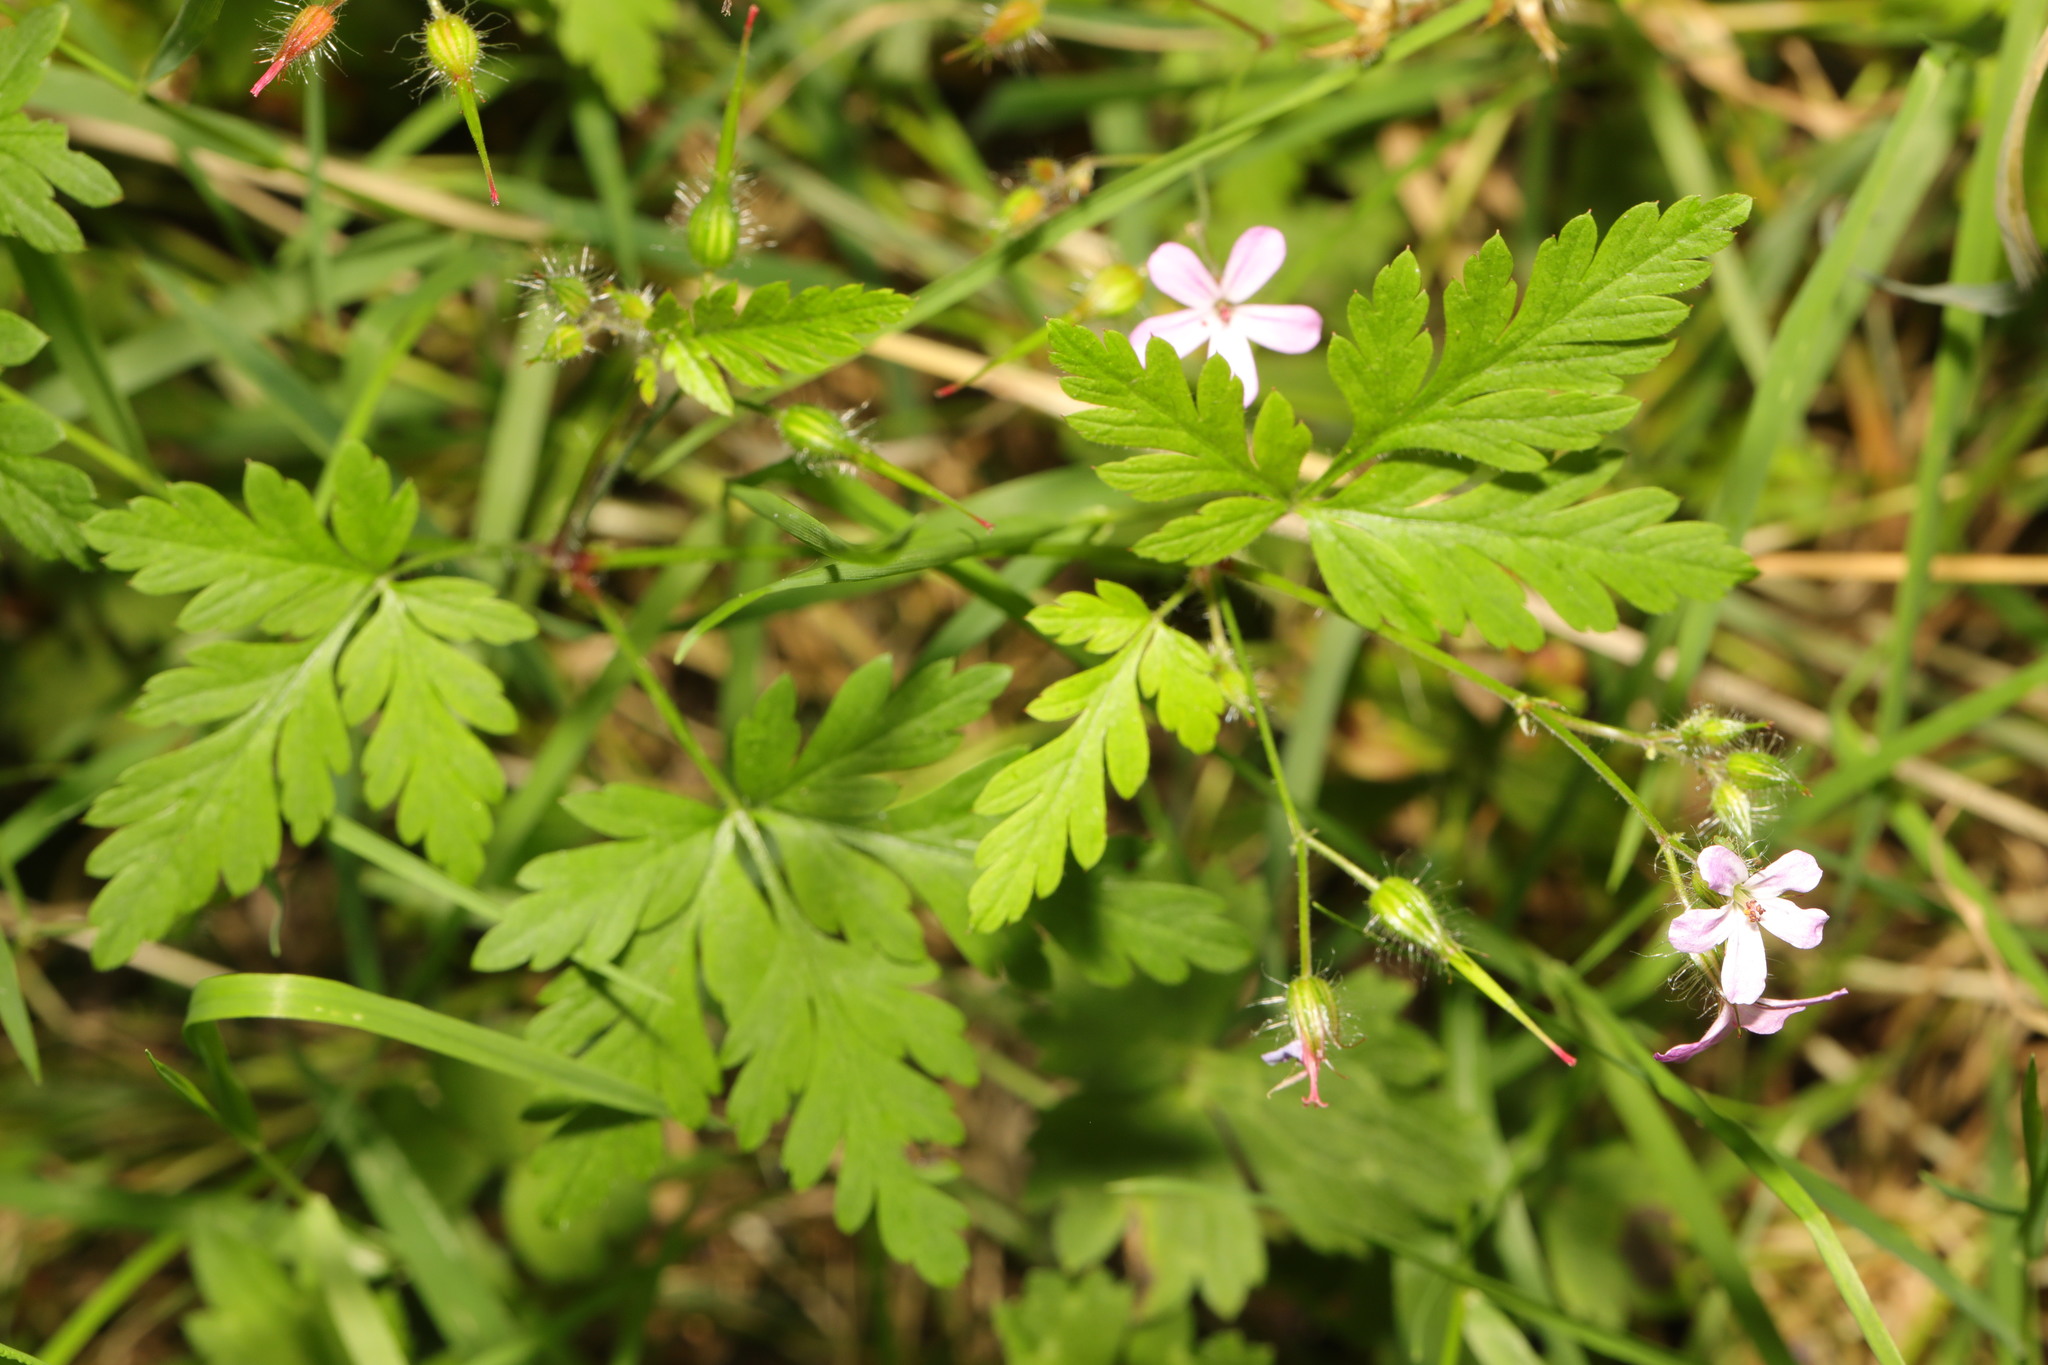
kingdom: Plantae
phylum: Tracheophyta
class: Magnoliopsida
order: Geraniales
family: Geraniaceae
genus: Geranium
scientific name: Geranium robertianum
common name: Herb-robert
